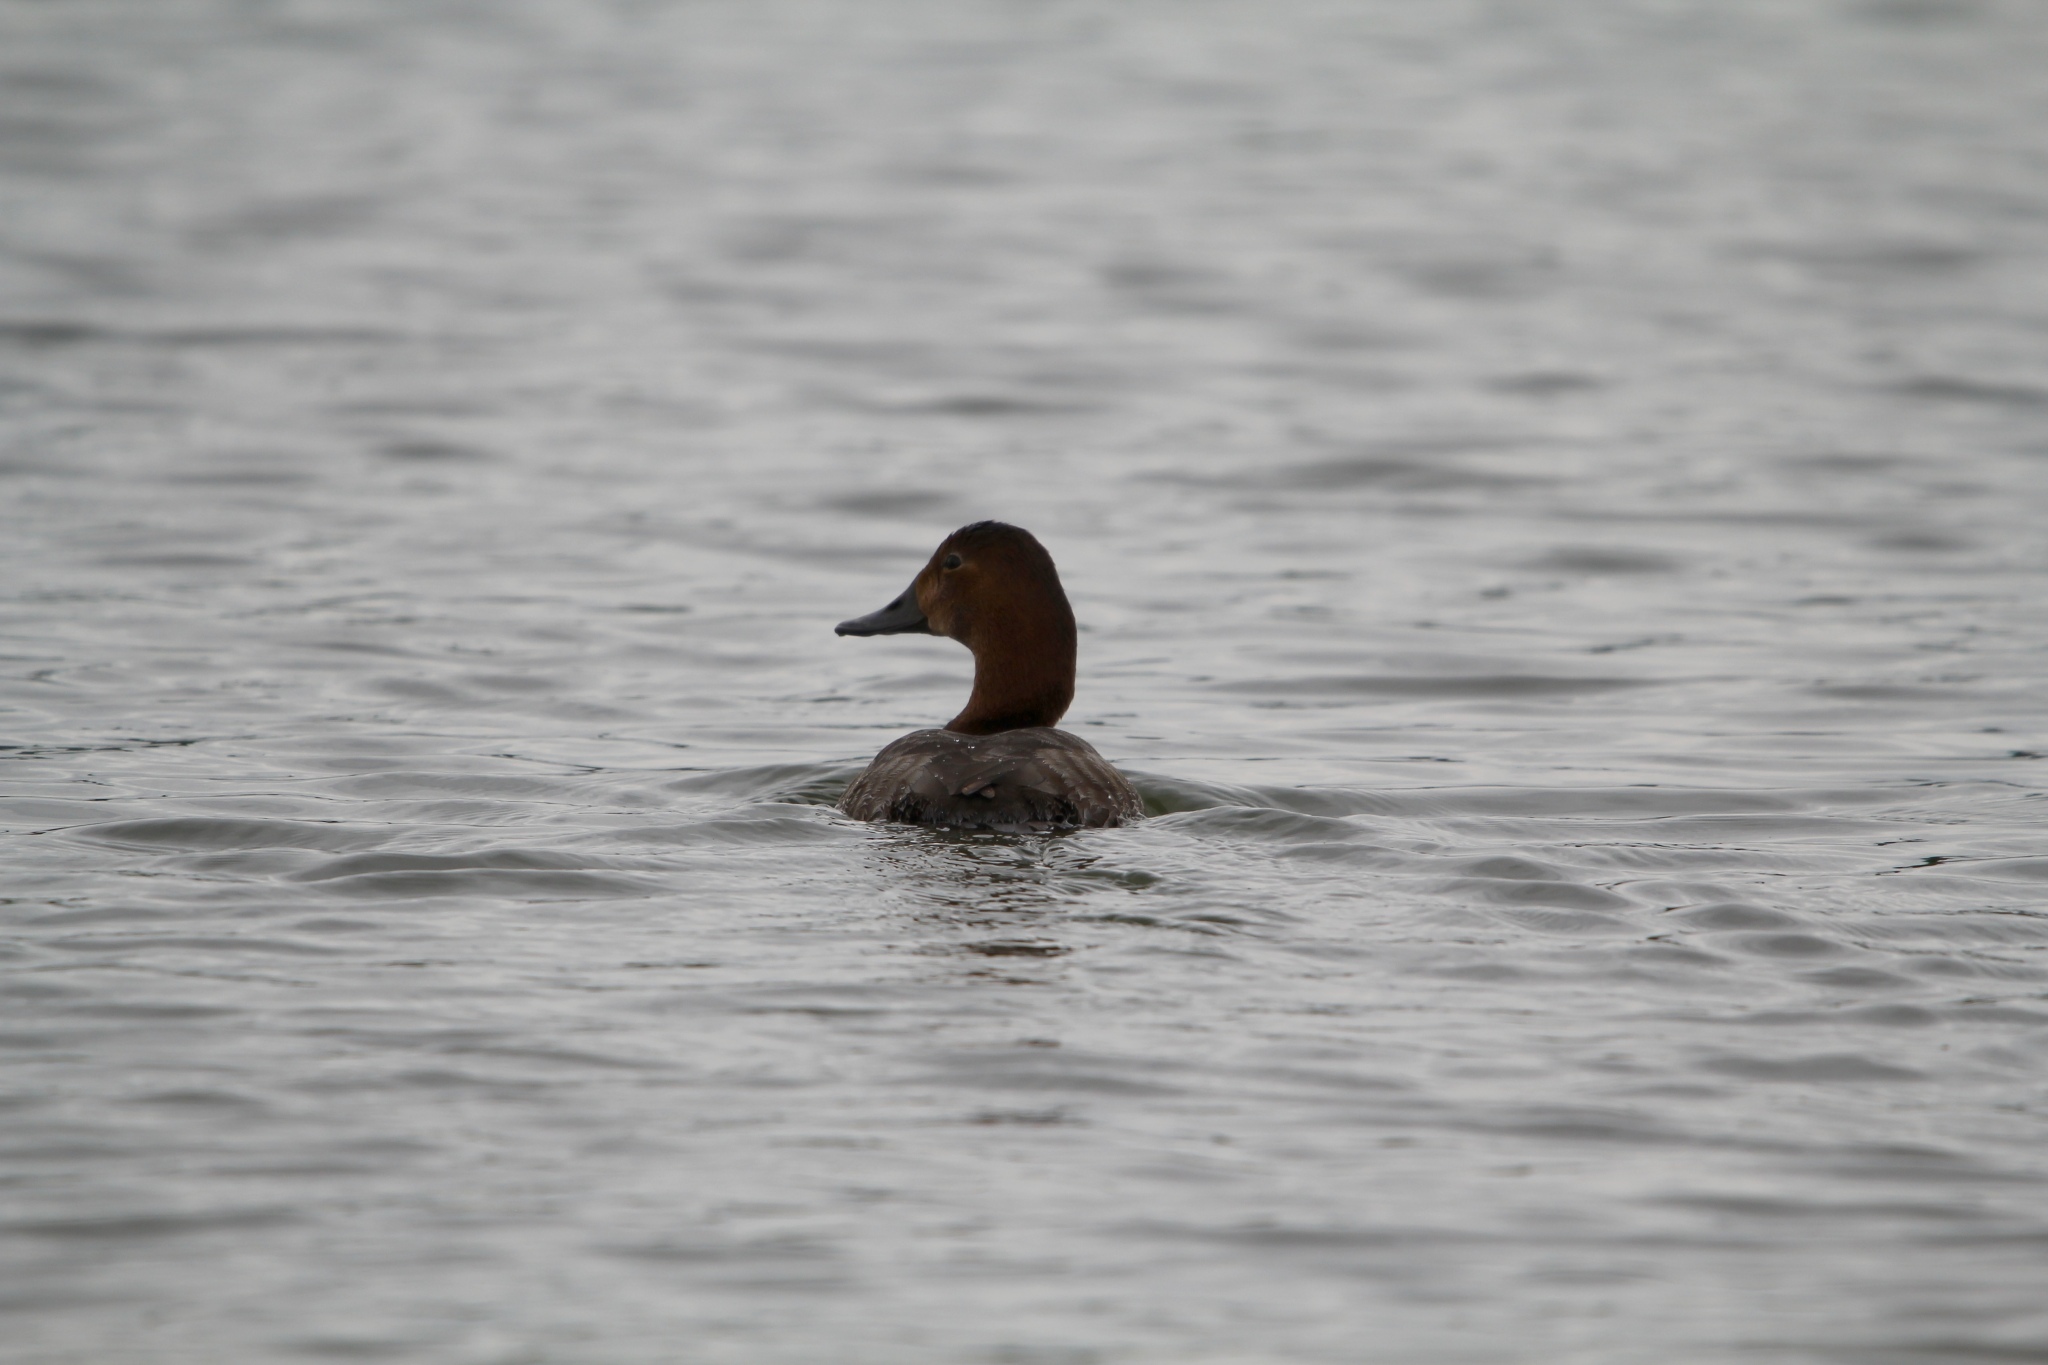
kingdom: Animalia
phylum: Chordata
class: Aves
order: Anseriformes
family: Anatidae
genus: Aythya
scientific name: Aythya ferina
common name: Common pochard
